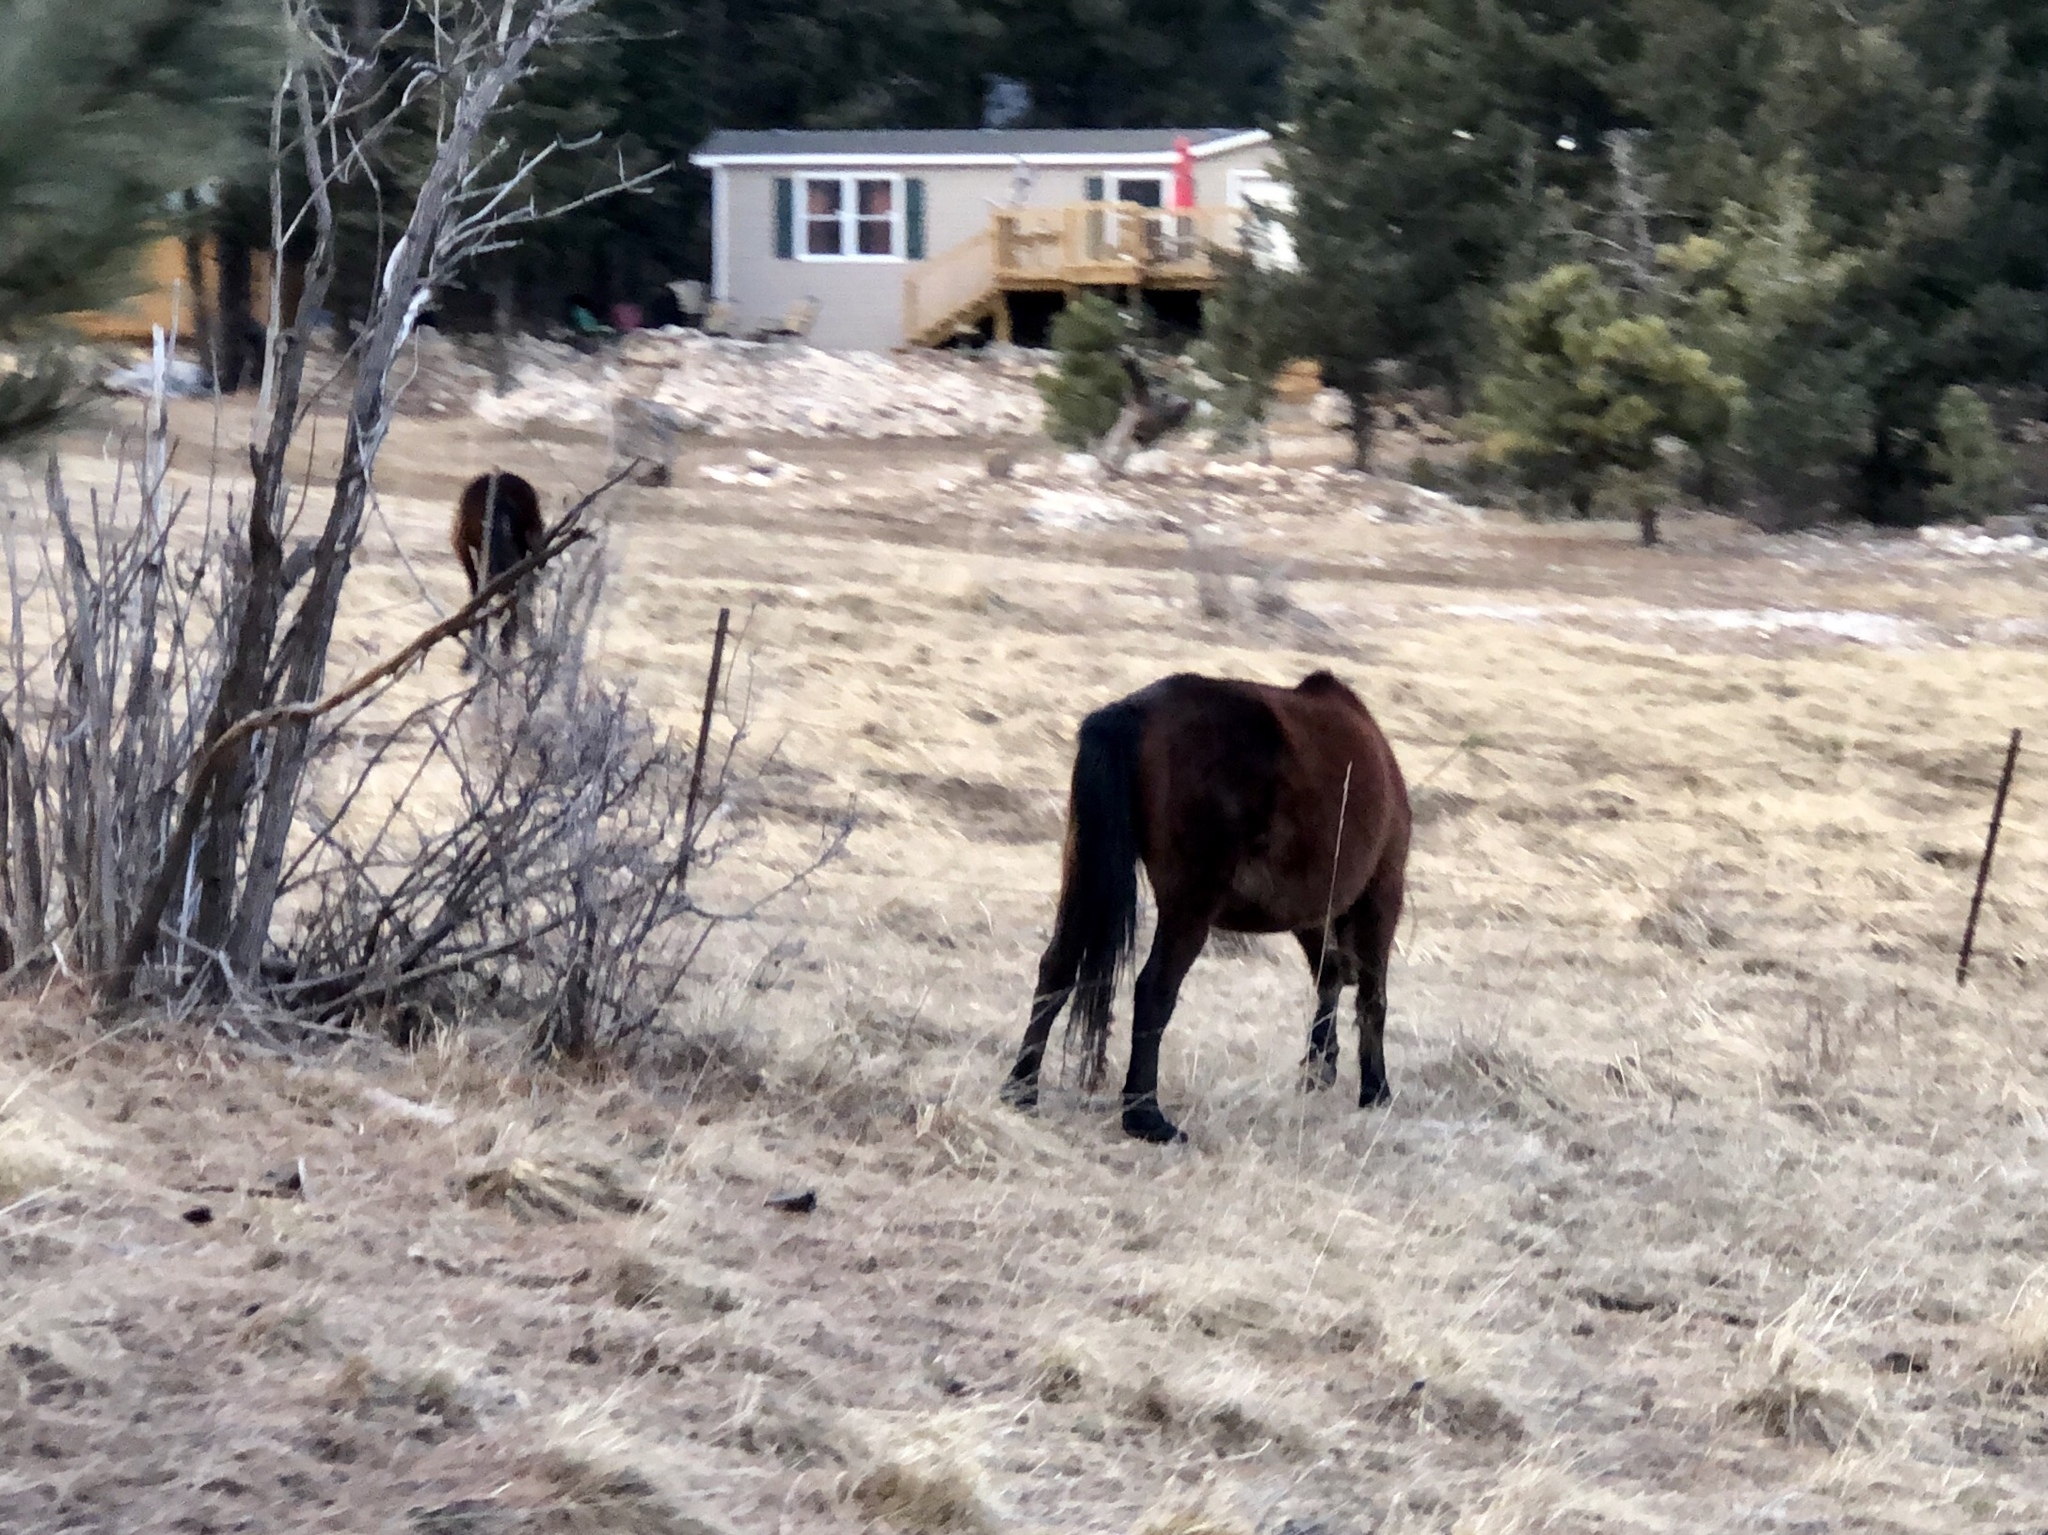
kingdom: Animalia
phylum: Chordata
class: Mammalia
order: Perissodactyla
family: Equidae
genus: Equus
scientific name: Equus caballus
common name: Horse
